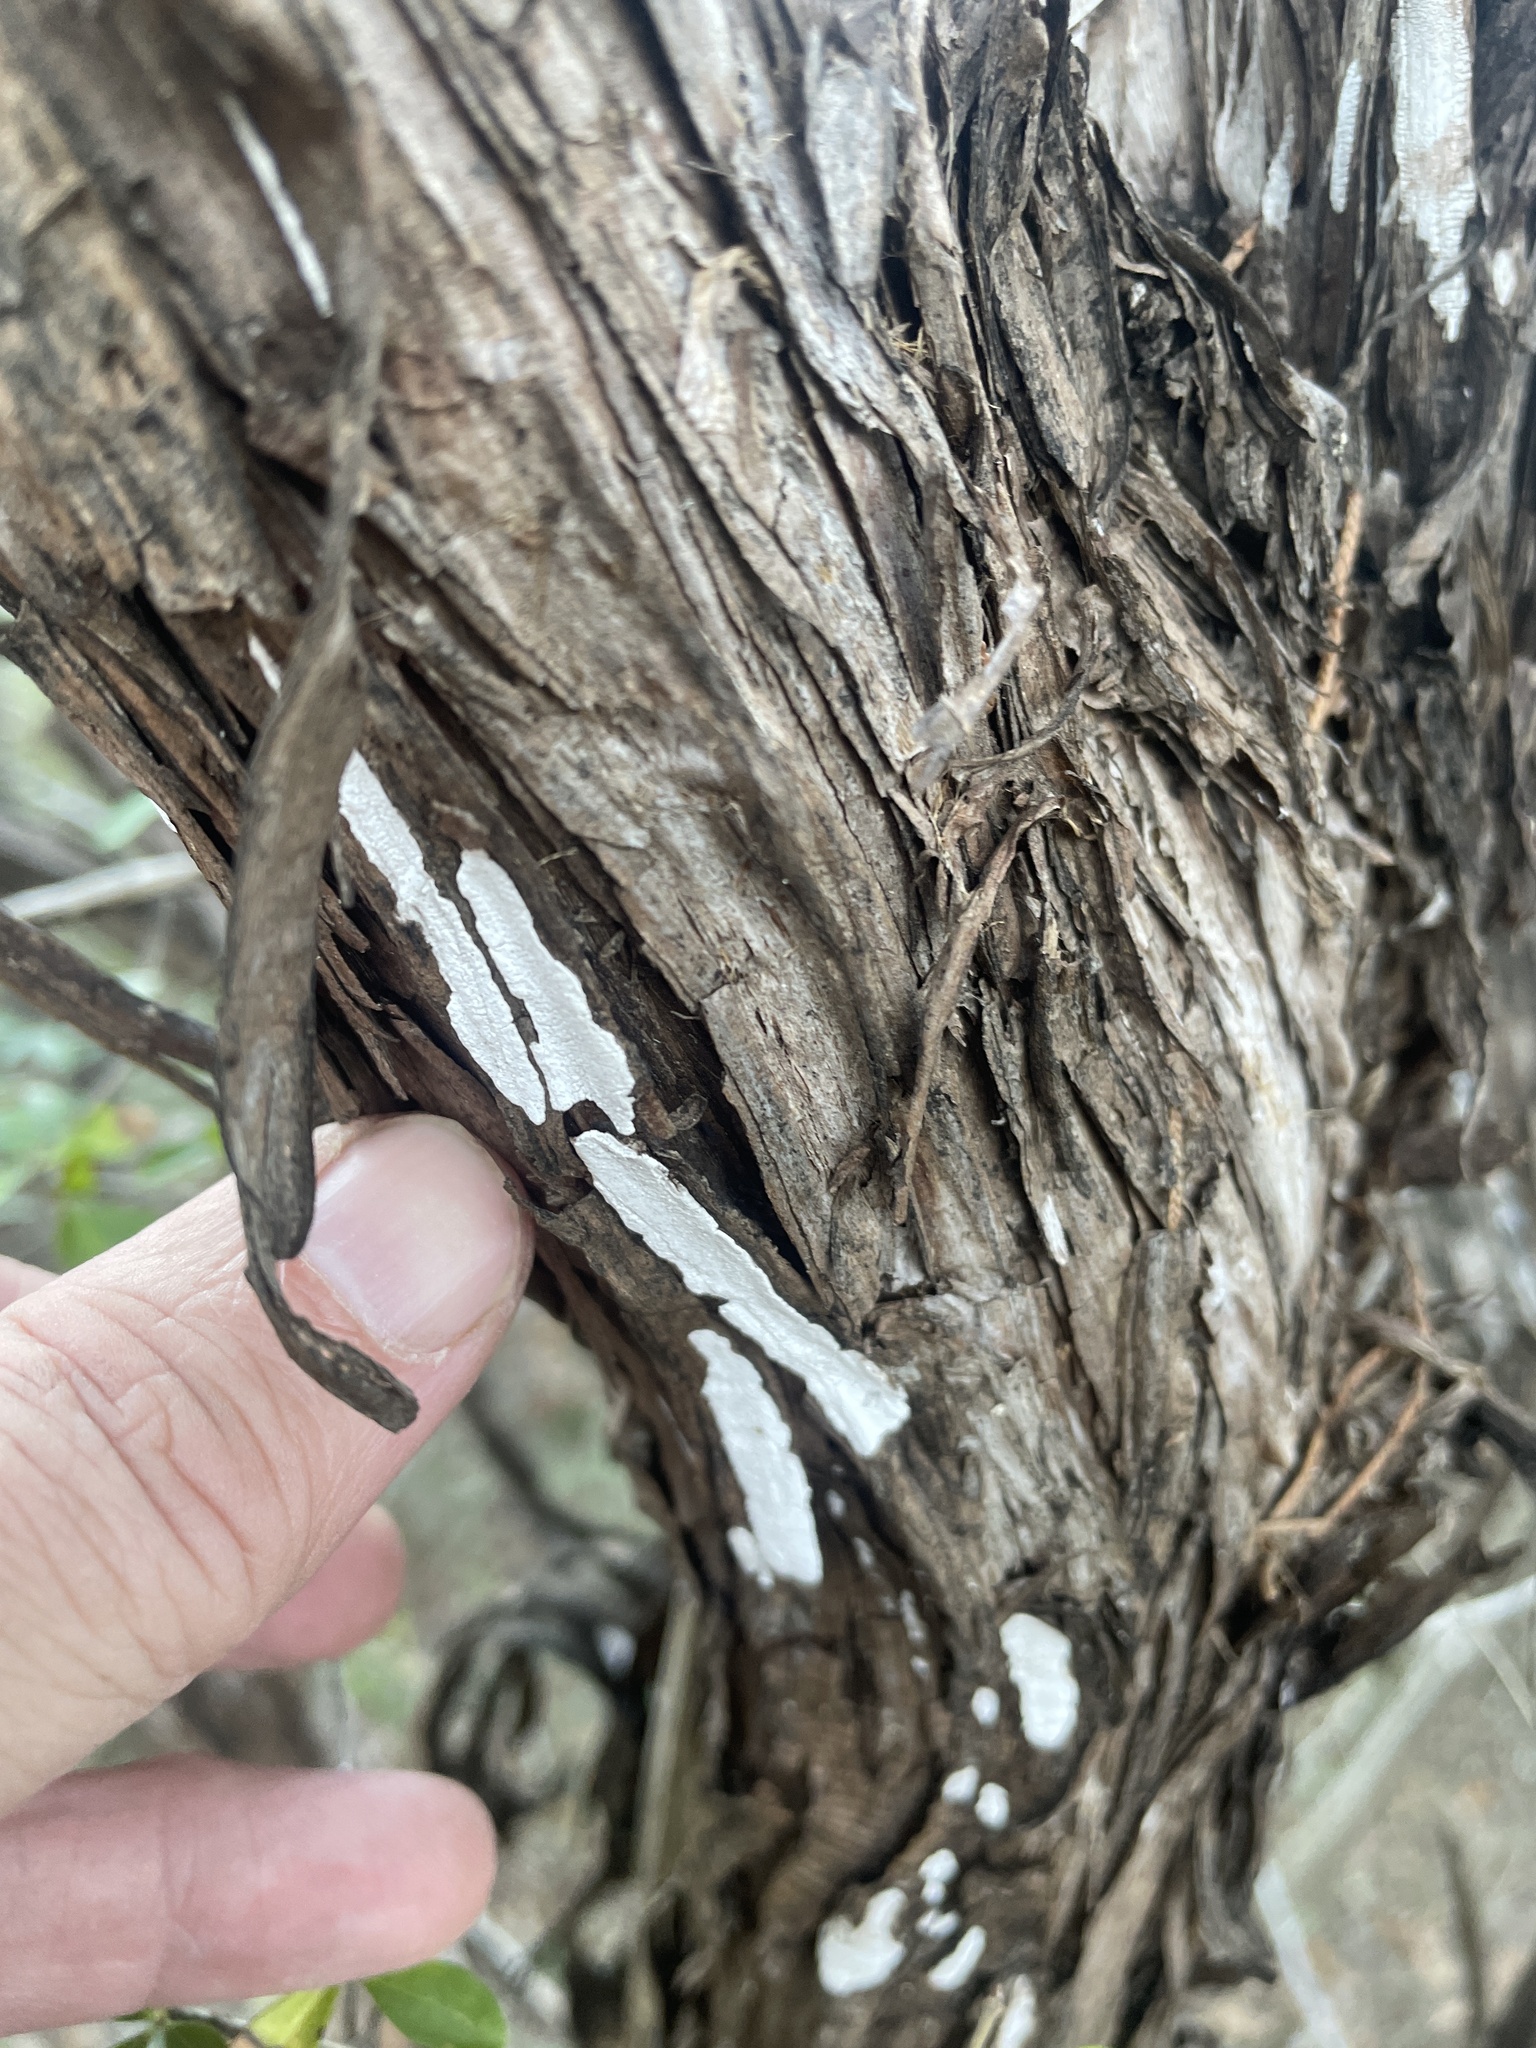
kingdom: Fungi
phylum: Basidiomycota
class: Agaricomycetes
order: Agaricales
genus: Dendrothele
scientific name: Dendrothele nivosa
